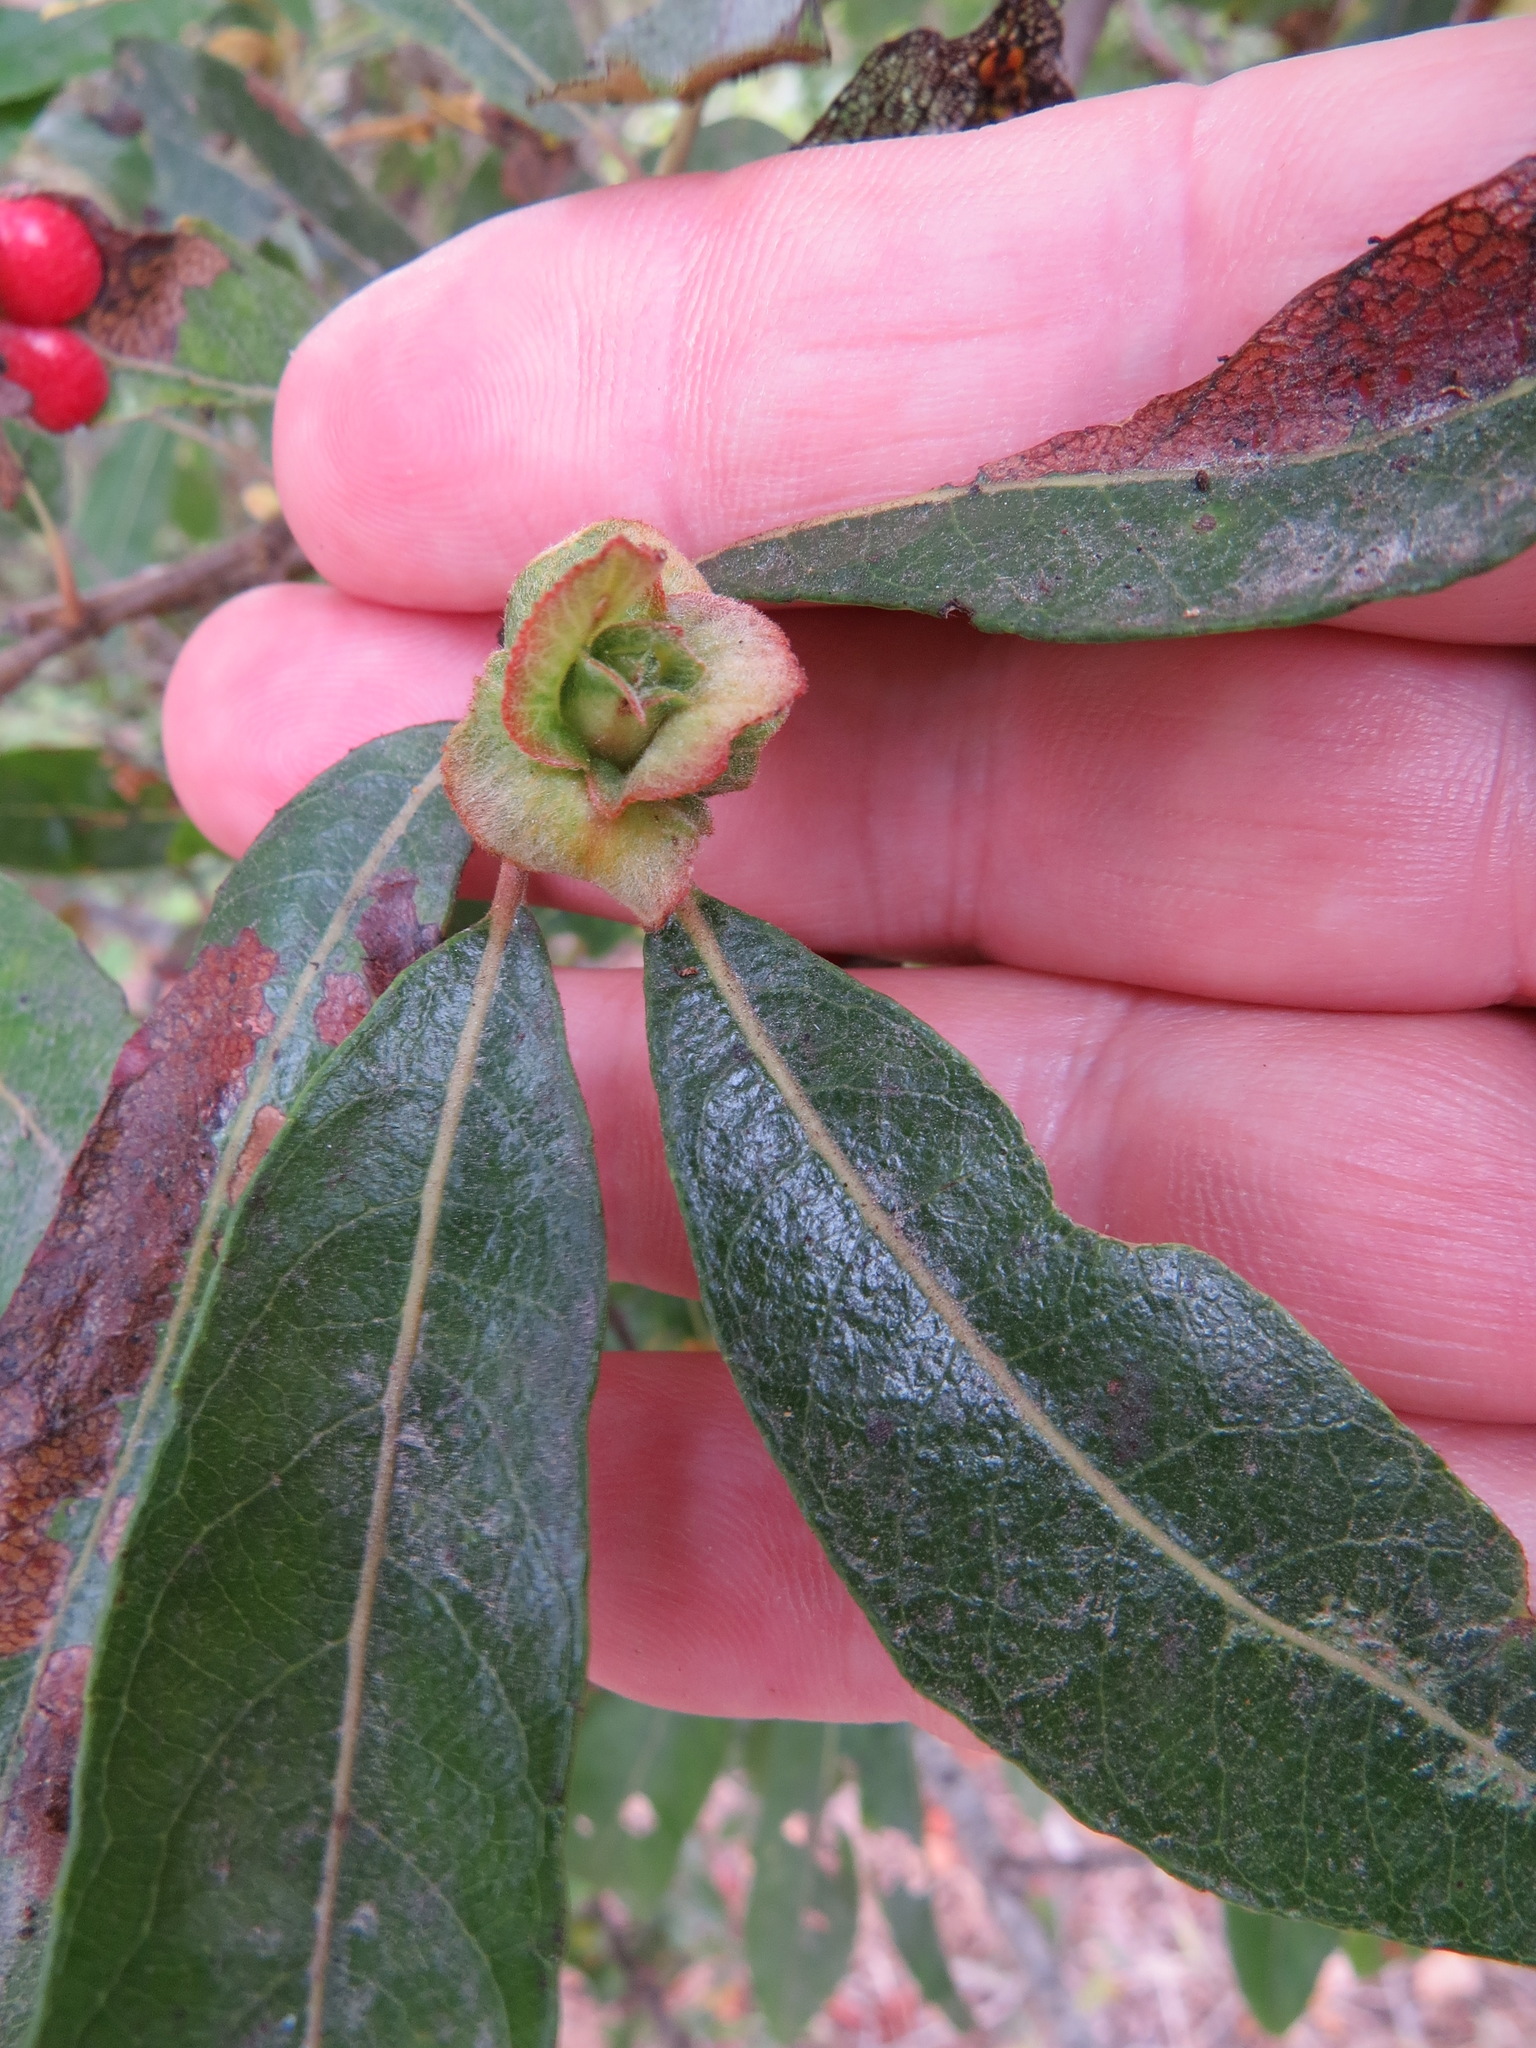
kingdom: Animalia
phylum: Arthropoda
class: Insecta
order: Diptera
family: Cecidomyiidae
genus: Rabdophaga
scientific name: Rabdophaga salicisbrassicoides
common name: Willow cabbagegall midge
